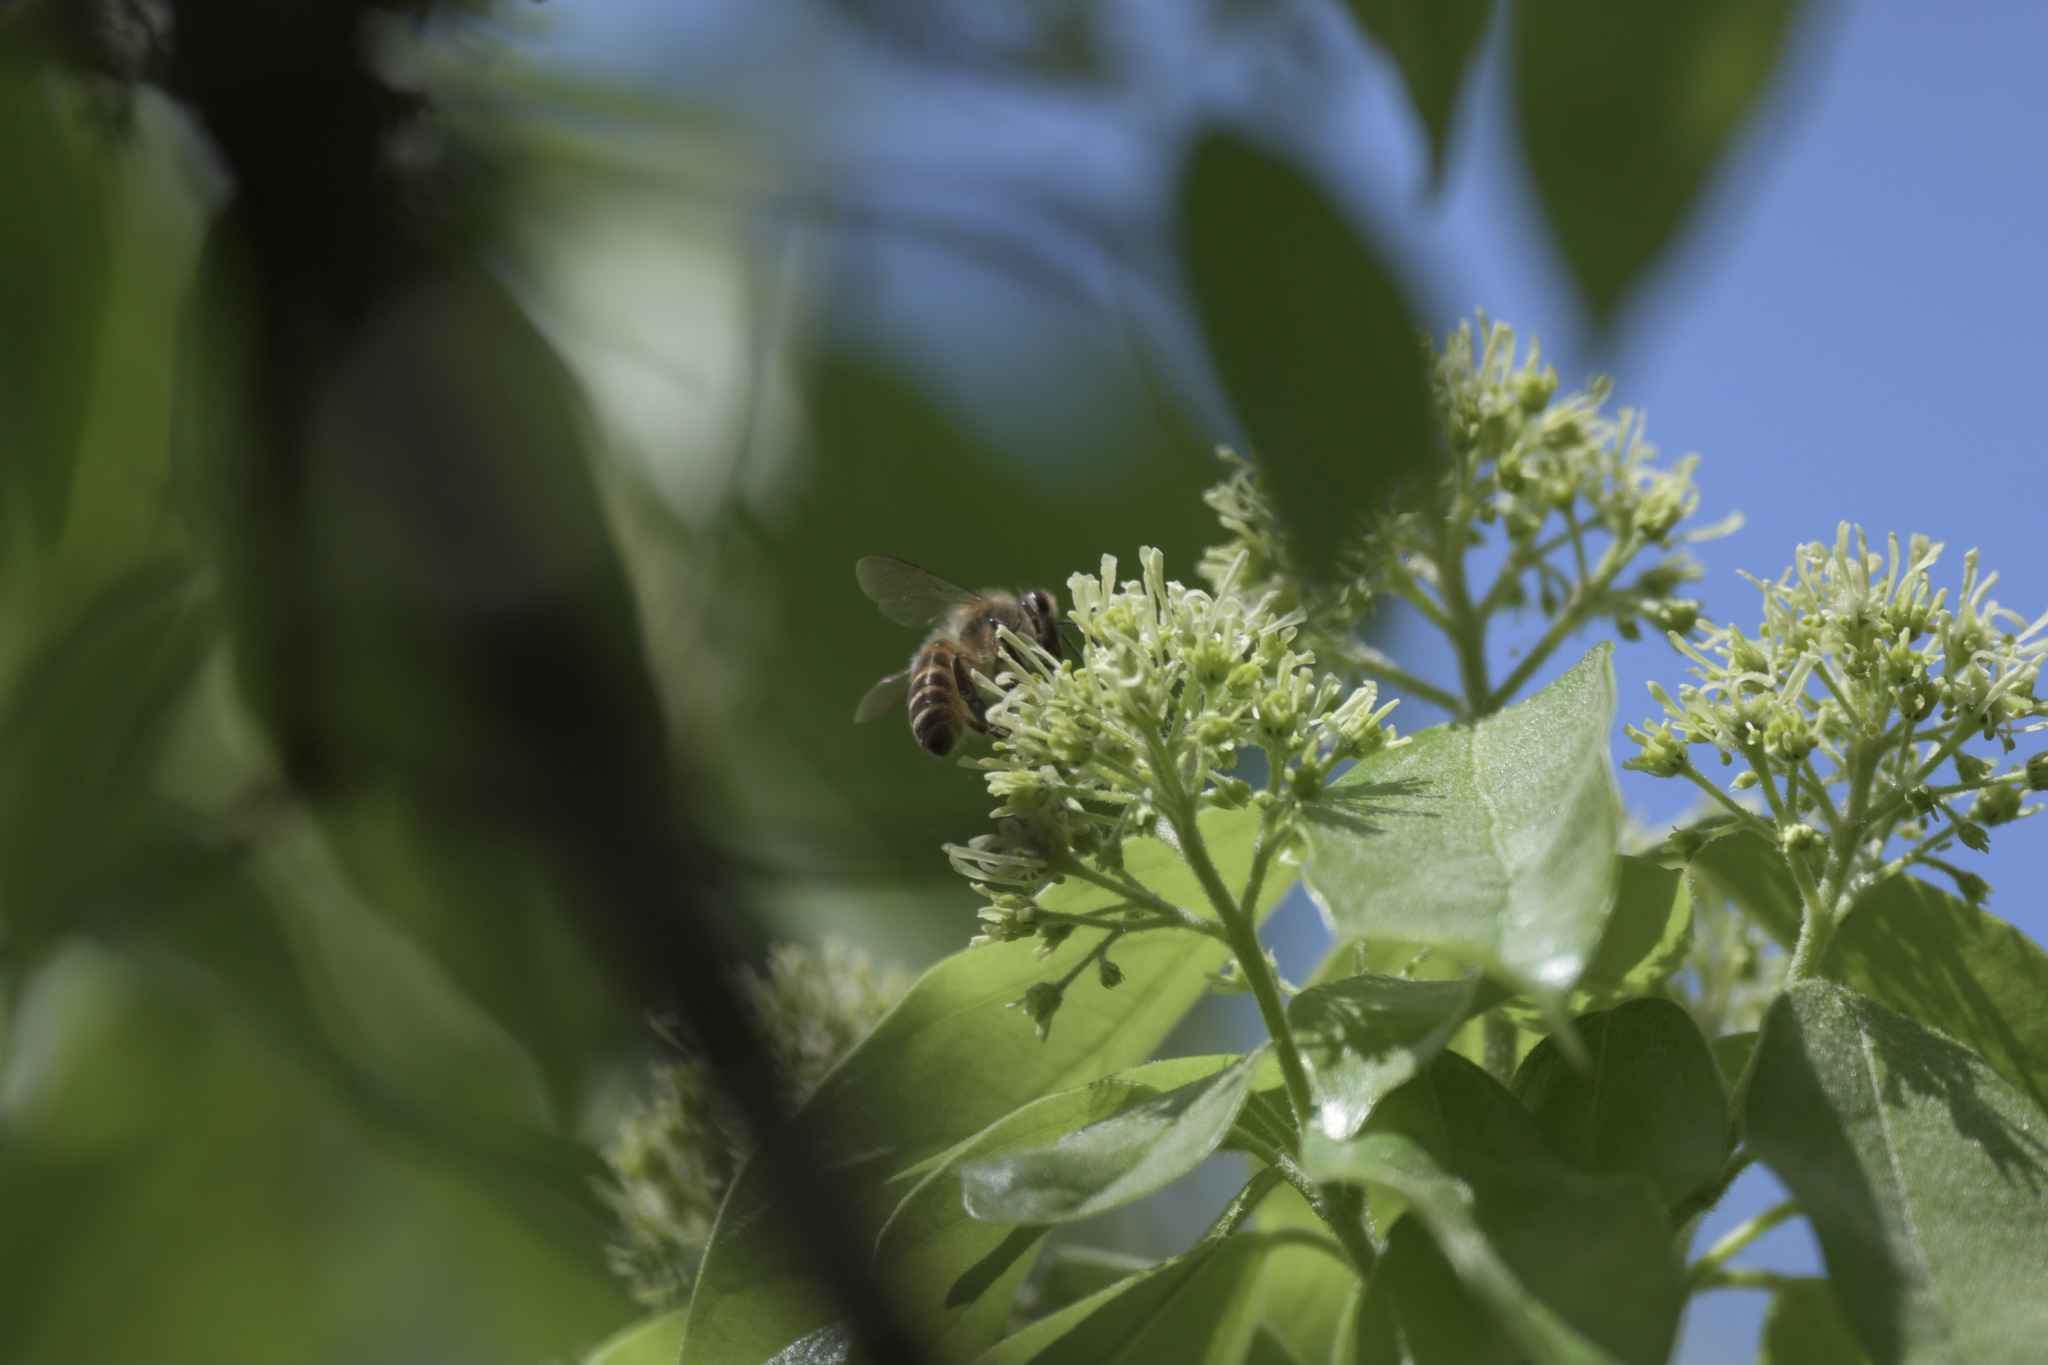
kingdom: Animalia
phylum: Arthropoda
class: Insecta
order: Hymenoptera
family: Apidae
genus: Apis
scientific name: Apis cerana
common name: Honey bee
